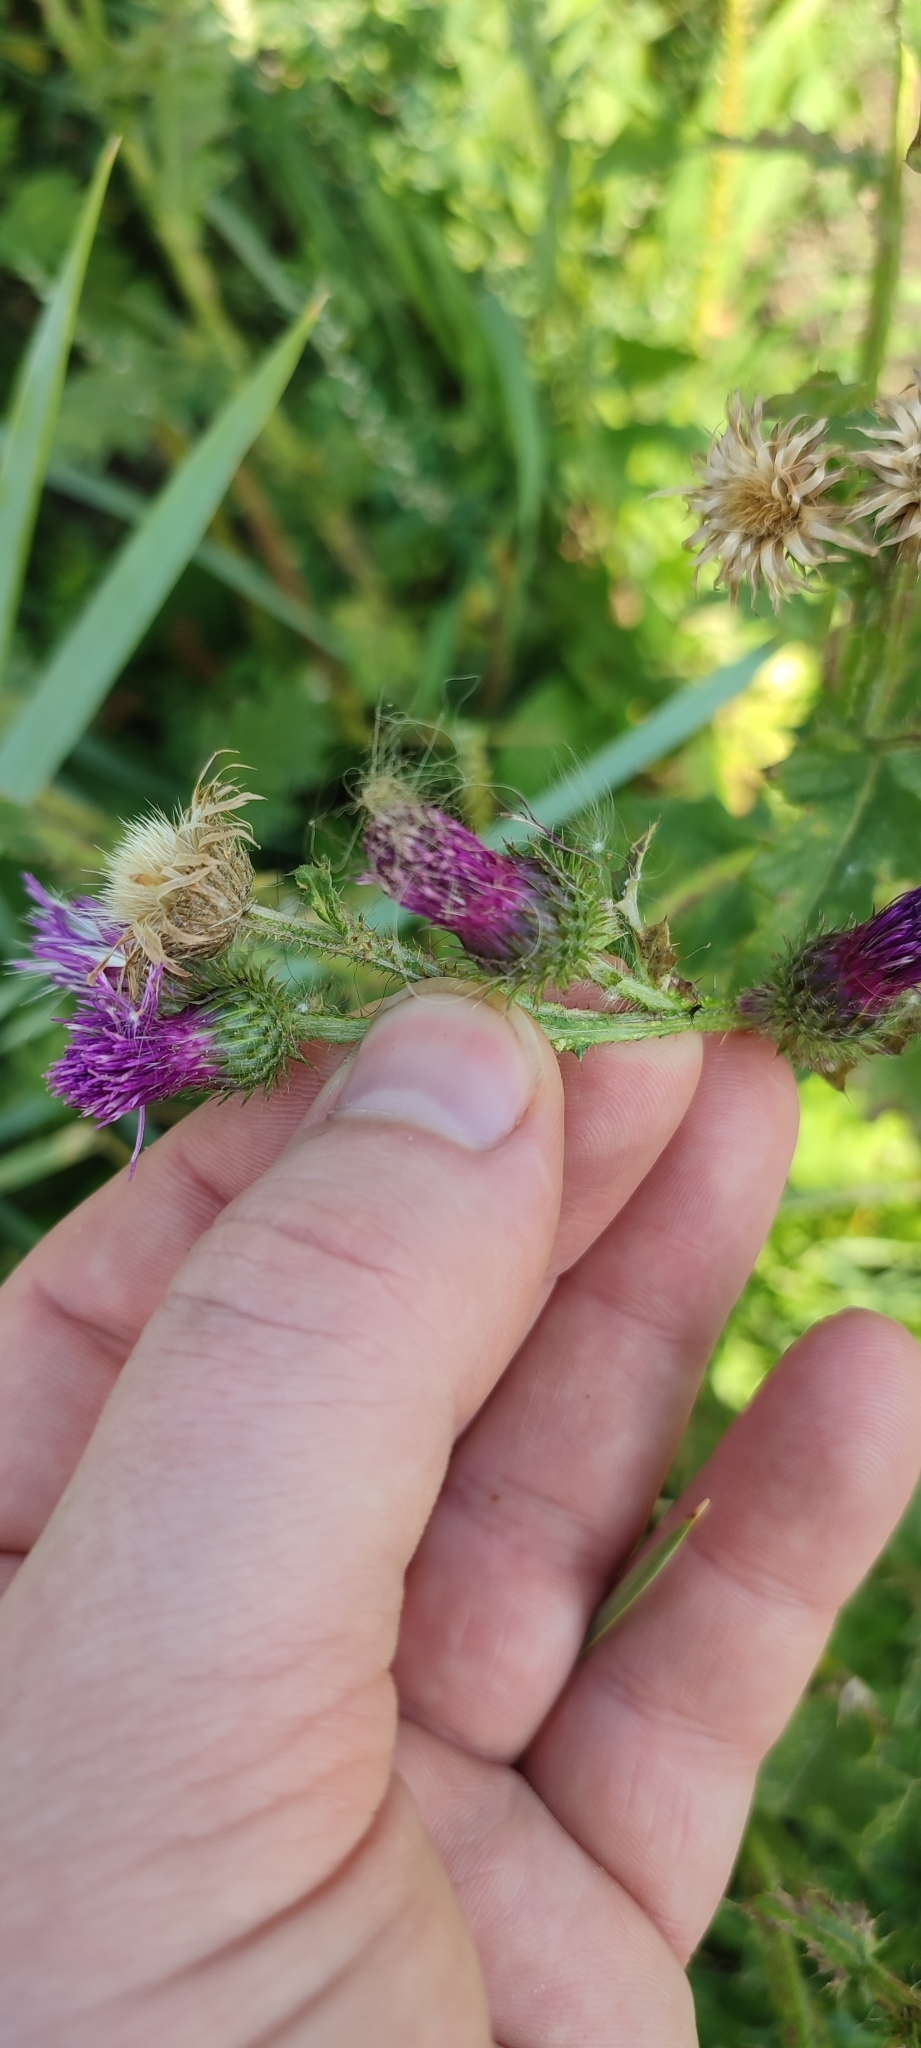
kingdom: Plantae
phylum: Tracheophyta
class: Magnoliopsida
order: Asterales
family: Asteraceae
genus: Carduus
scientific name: Carduus crispus
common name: Welted thistle
